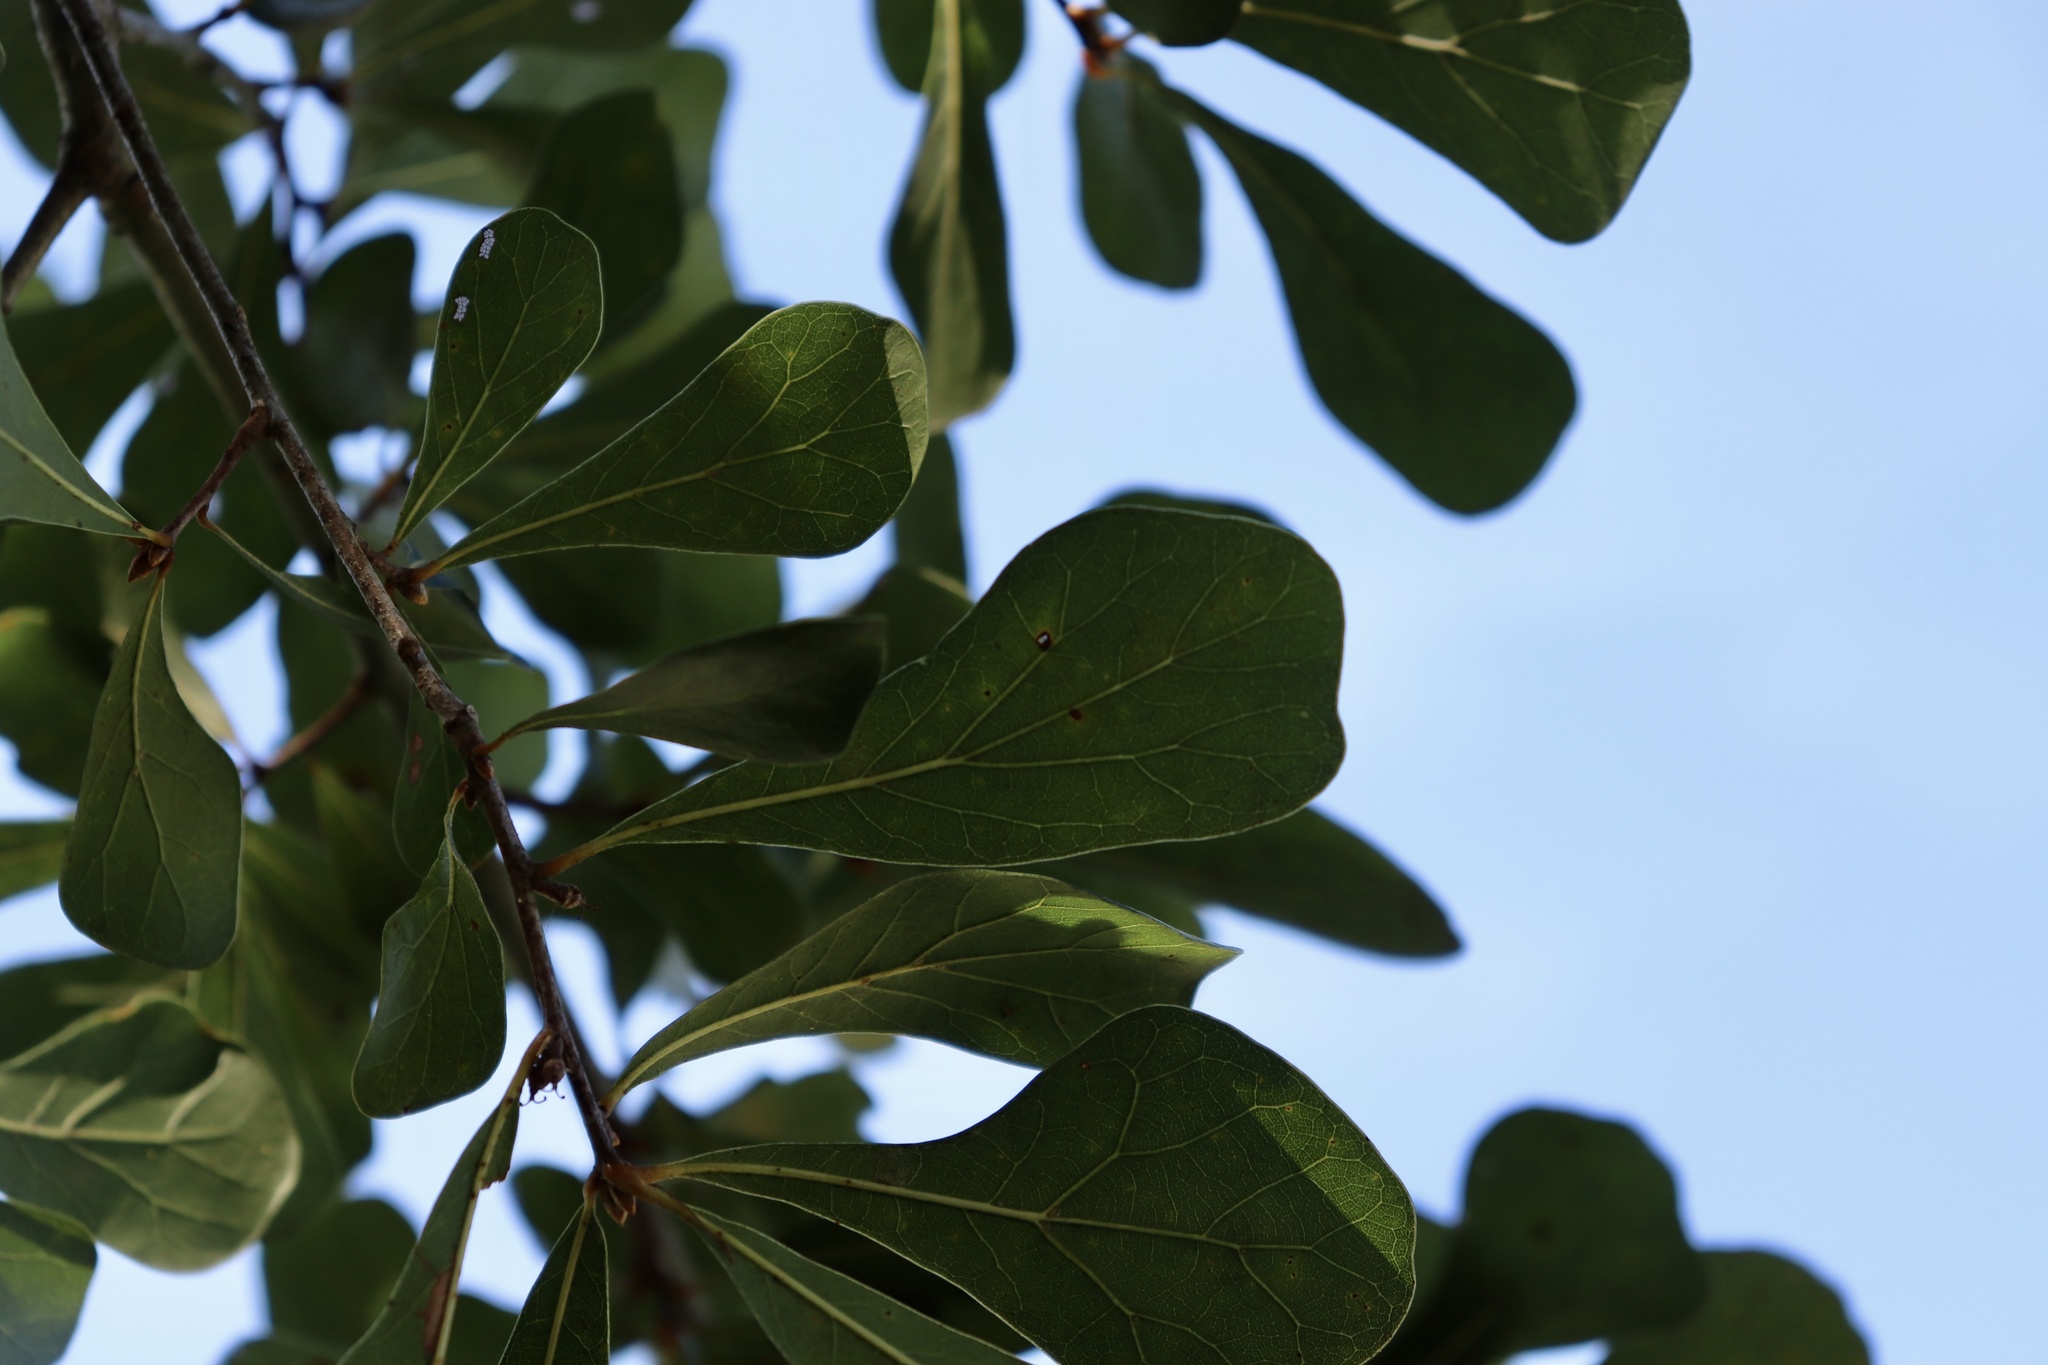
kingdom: Plantae
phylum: Tracheophyta
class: Magnoliopsida
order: Fagales
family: Fagaceae
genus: Quercus
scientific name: Quercus nigra
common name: Water oak
